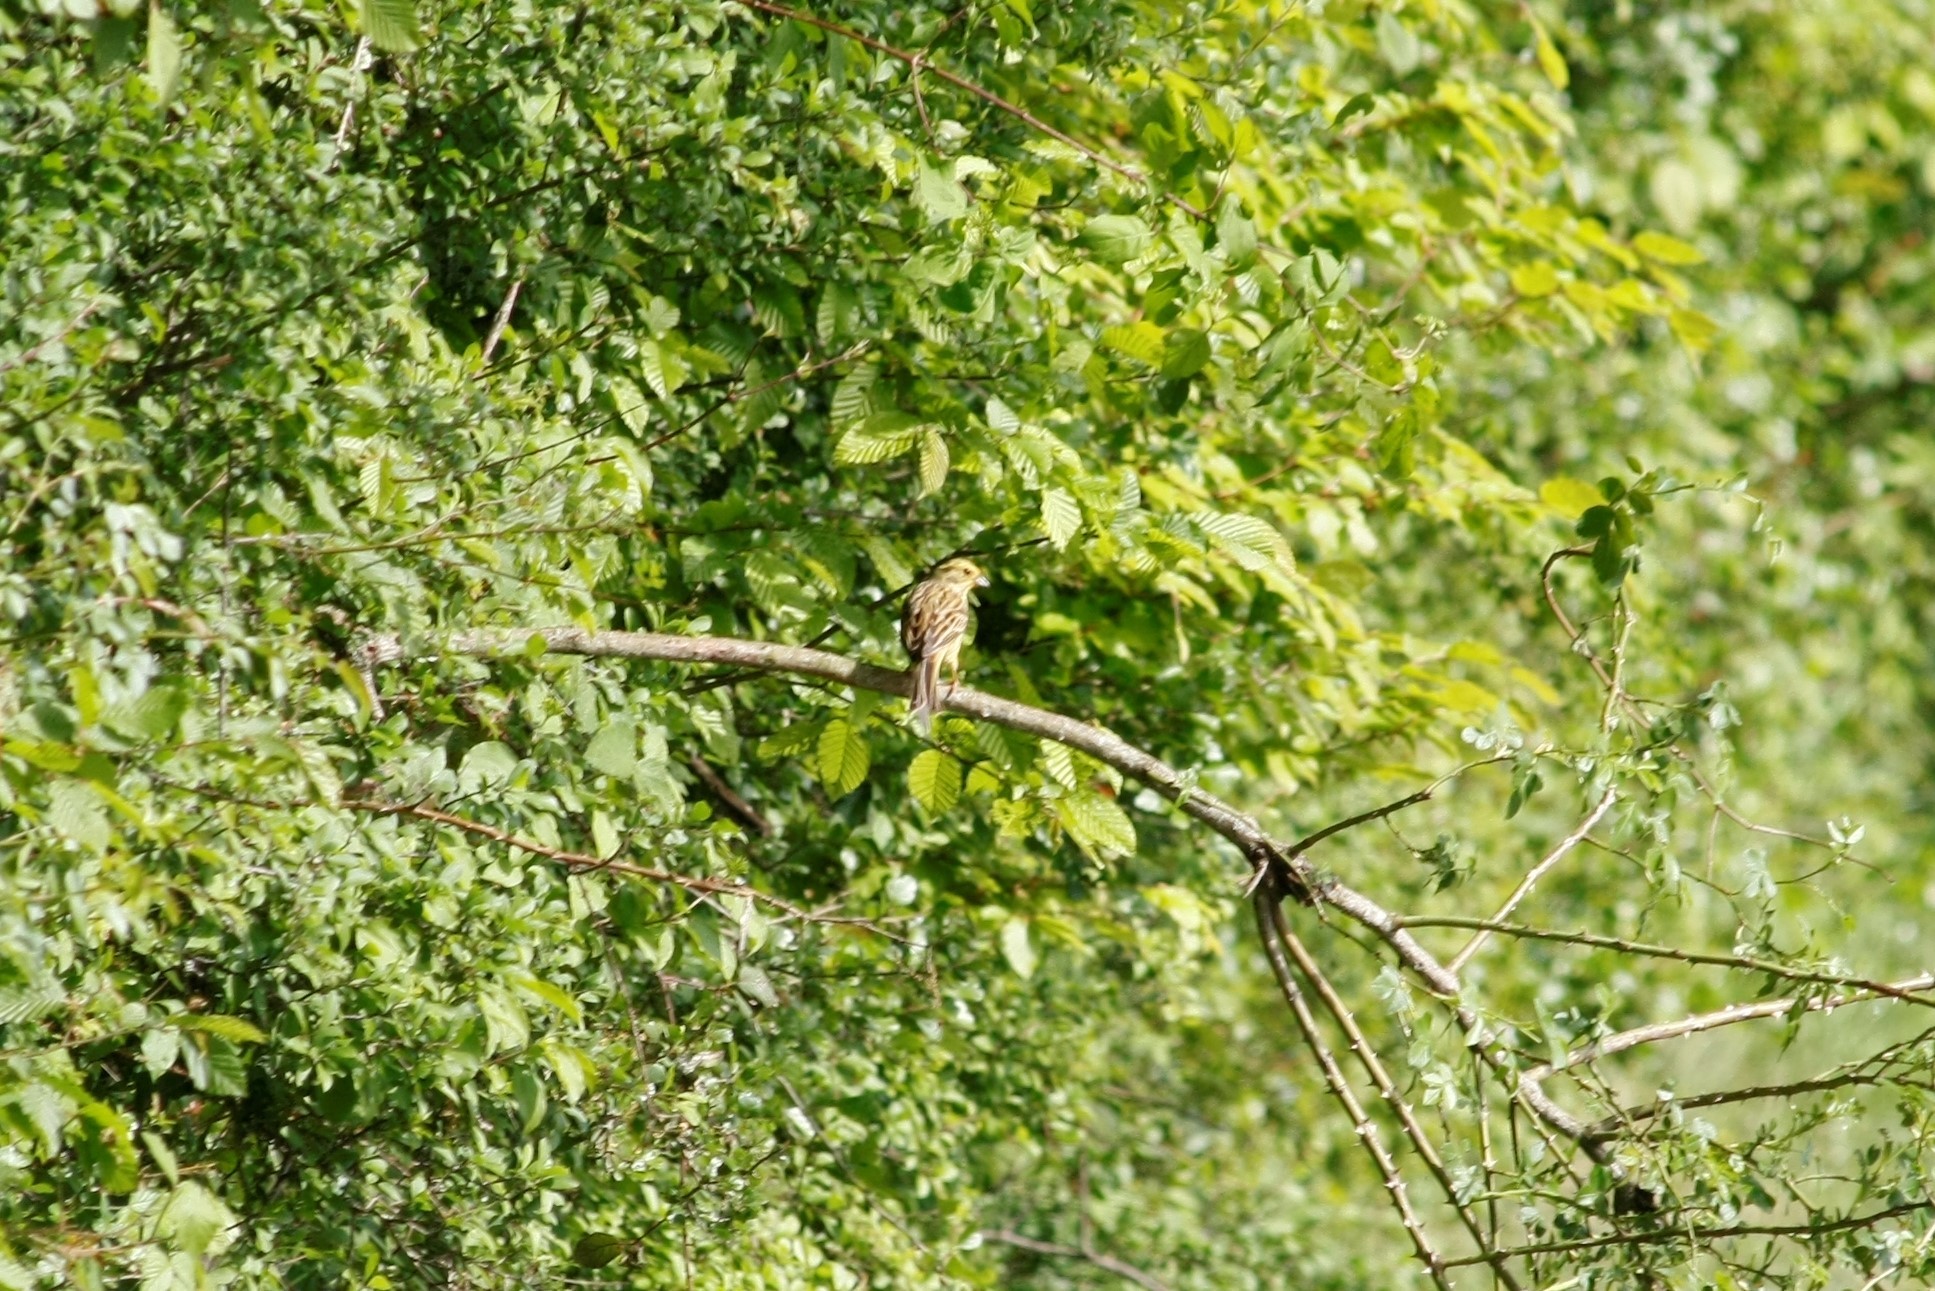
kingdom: Animalia
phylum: Chordata
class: Aves
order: Passeriformes
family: Emberizidae
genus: Emberiza
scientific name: Emberiza citrinella
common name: Yellowhammer
